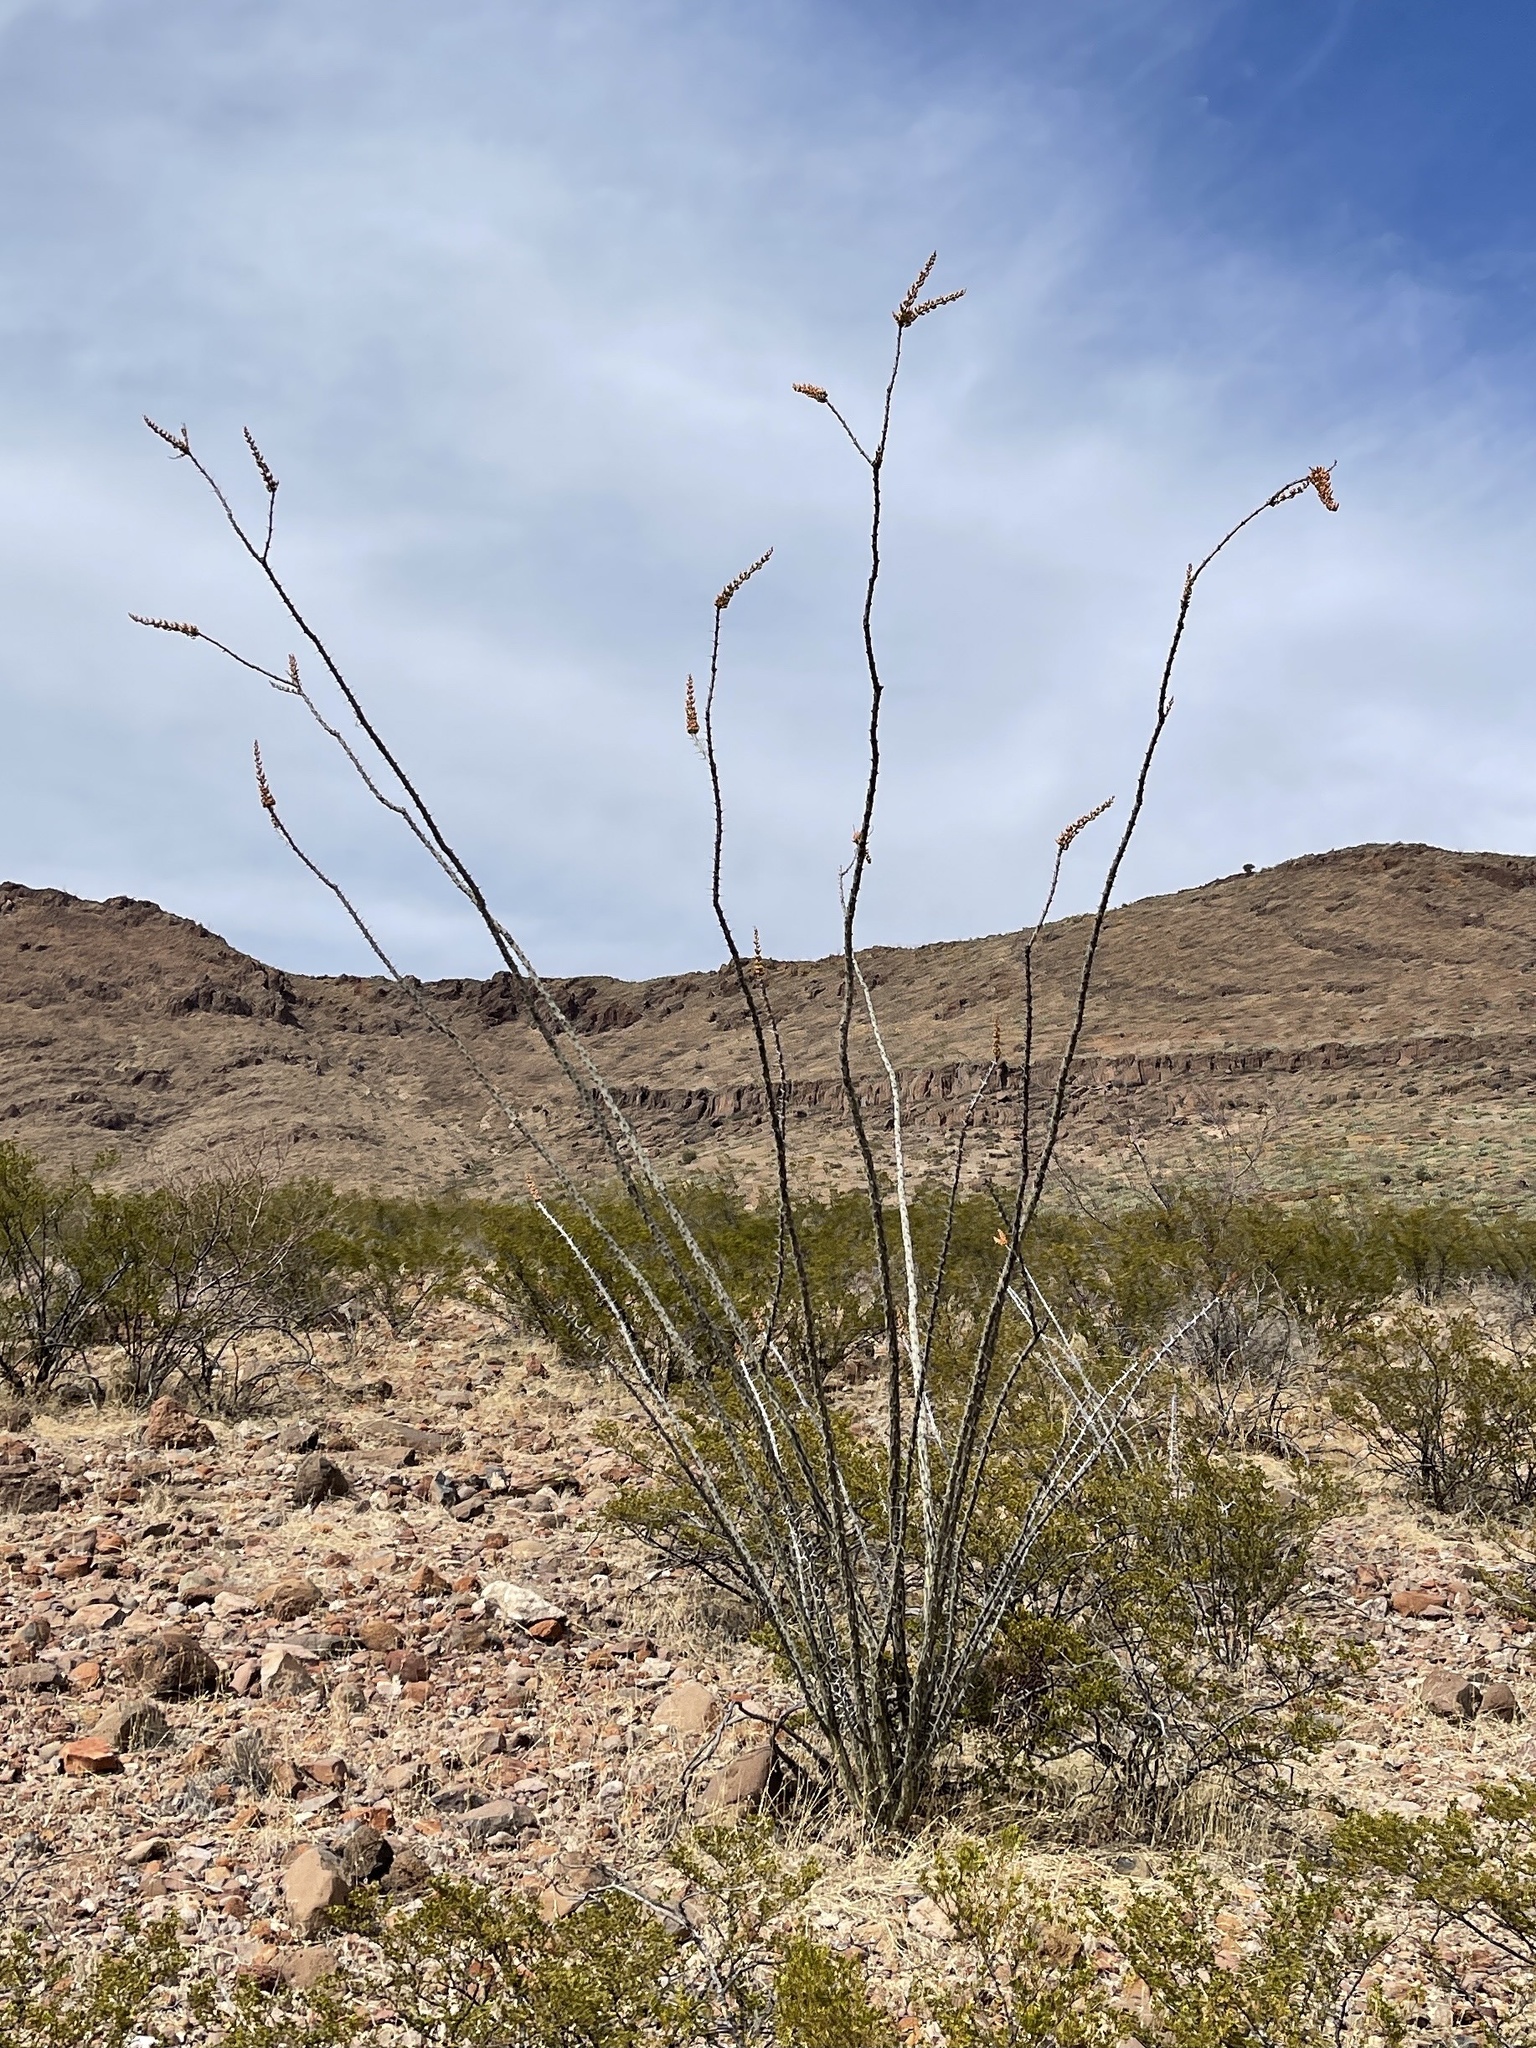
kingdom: Plantae
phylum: Tracheophyta
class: Magnoliopsida
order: Ericales
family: Fouquieriaceae
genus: Fouquieria
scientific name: Fouquieria splendens
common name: Vine-cactus
